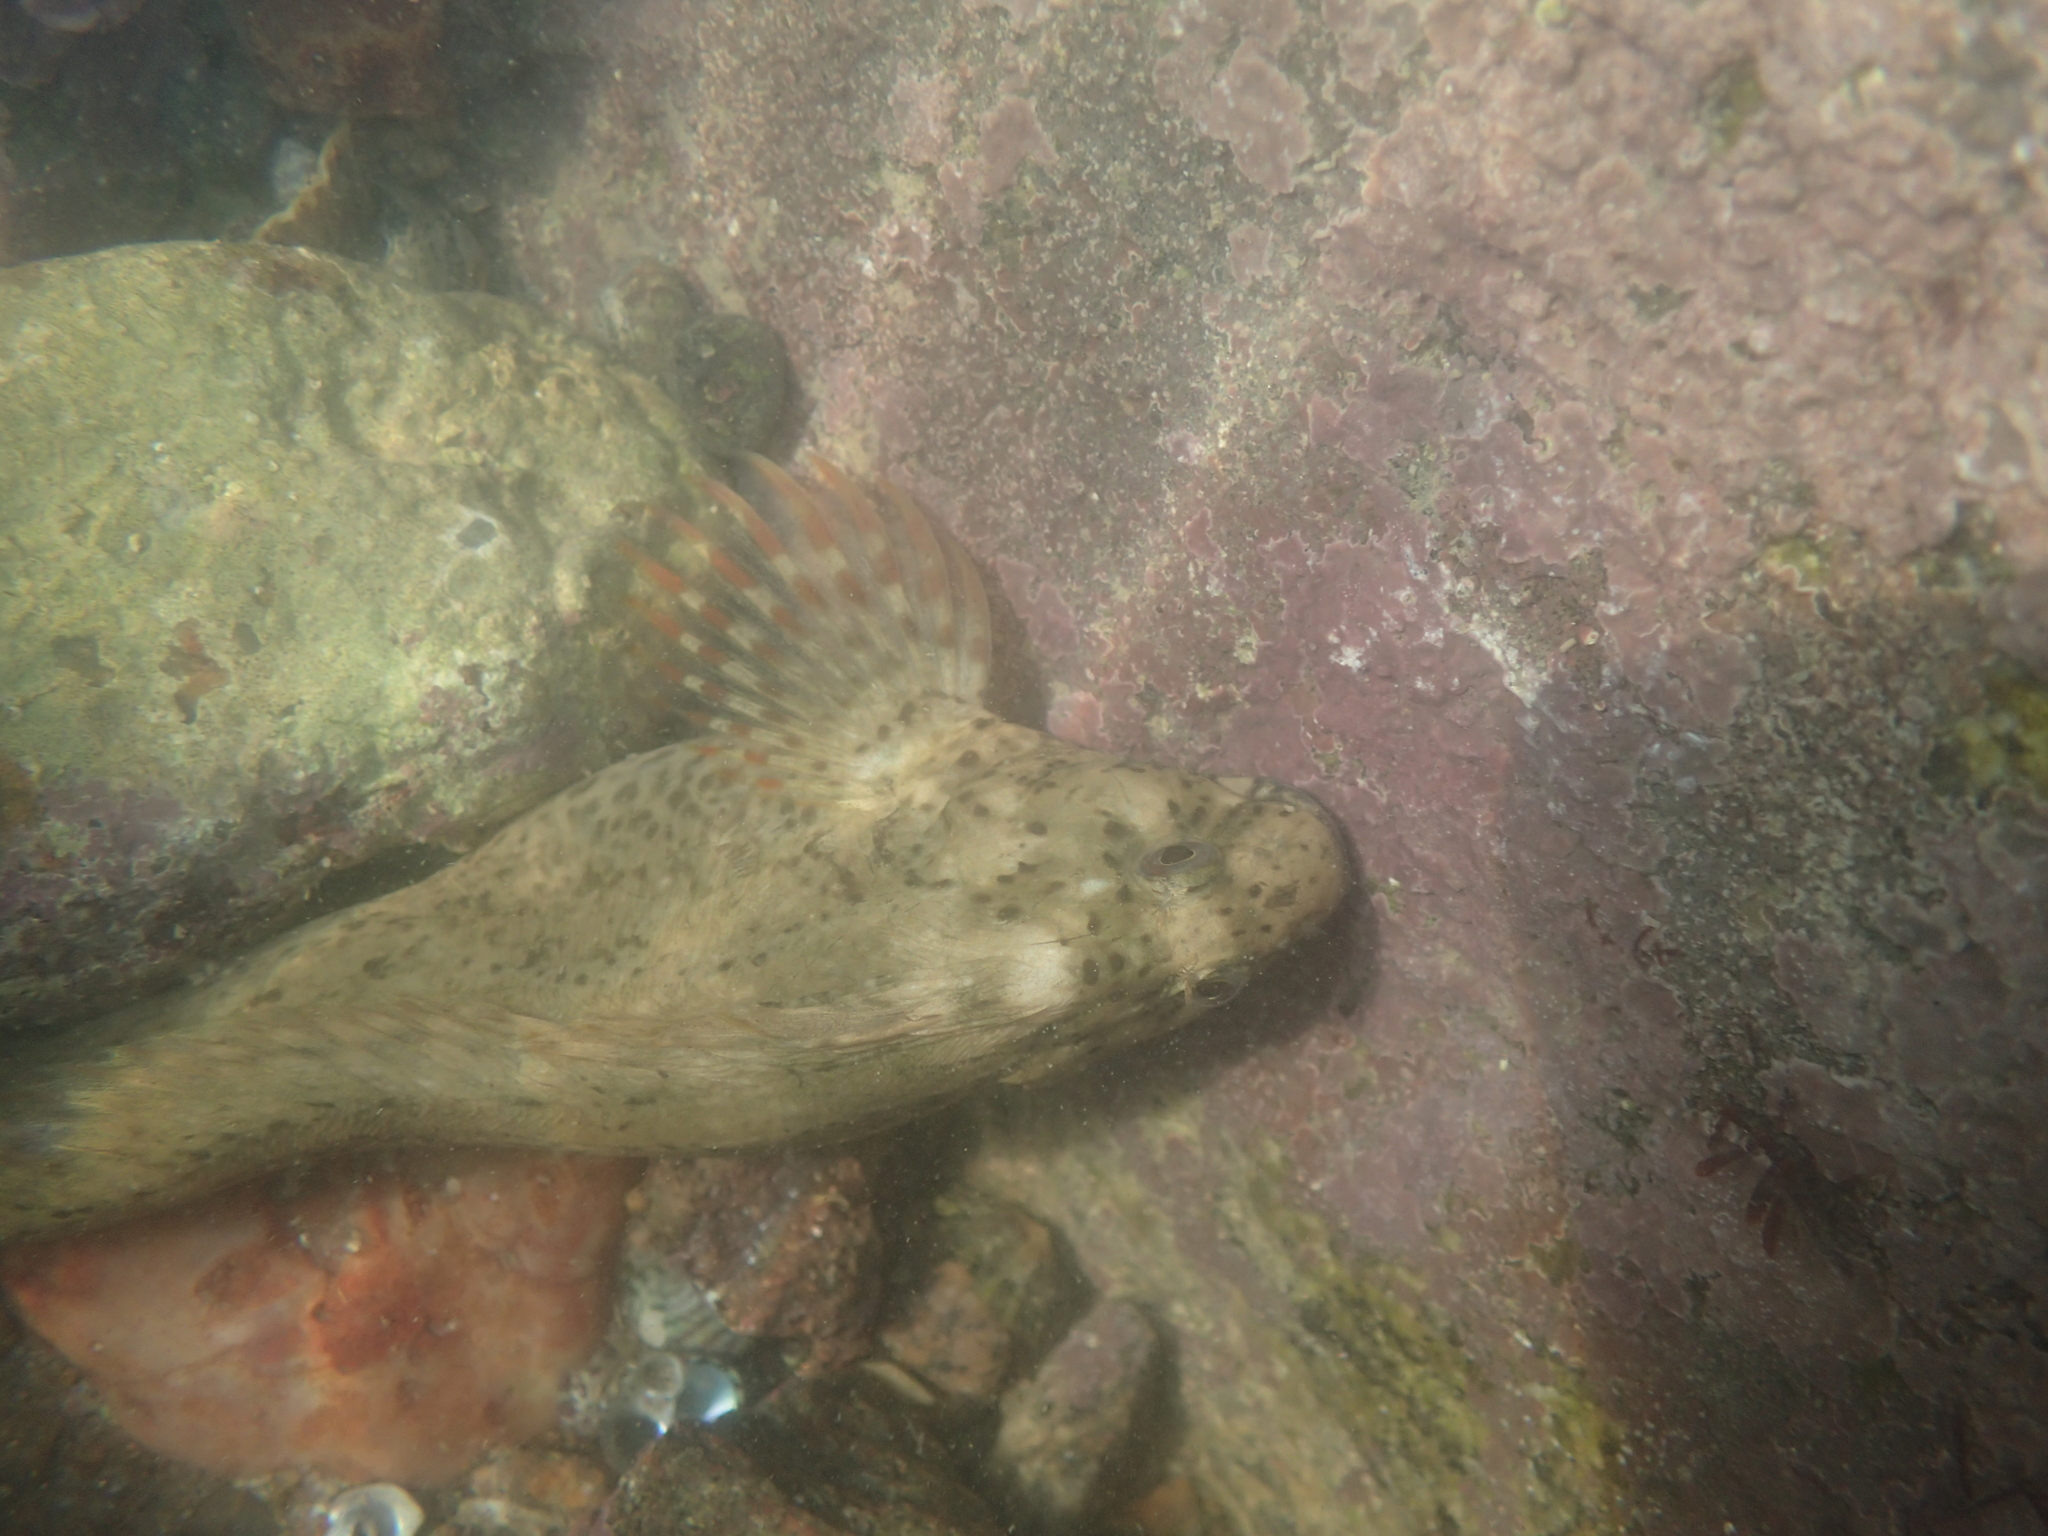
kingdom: Animalia
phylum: Chordata
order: Perciformes
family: Blenniidae
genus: Parablennius
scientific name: Parablennius sanguinolentus
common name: Black sea blenny
